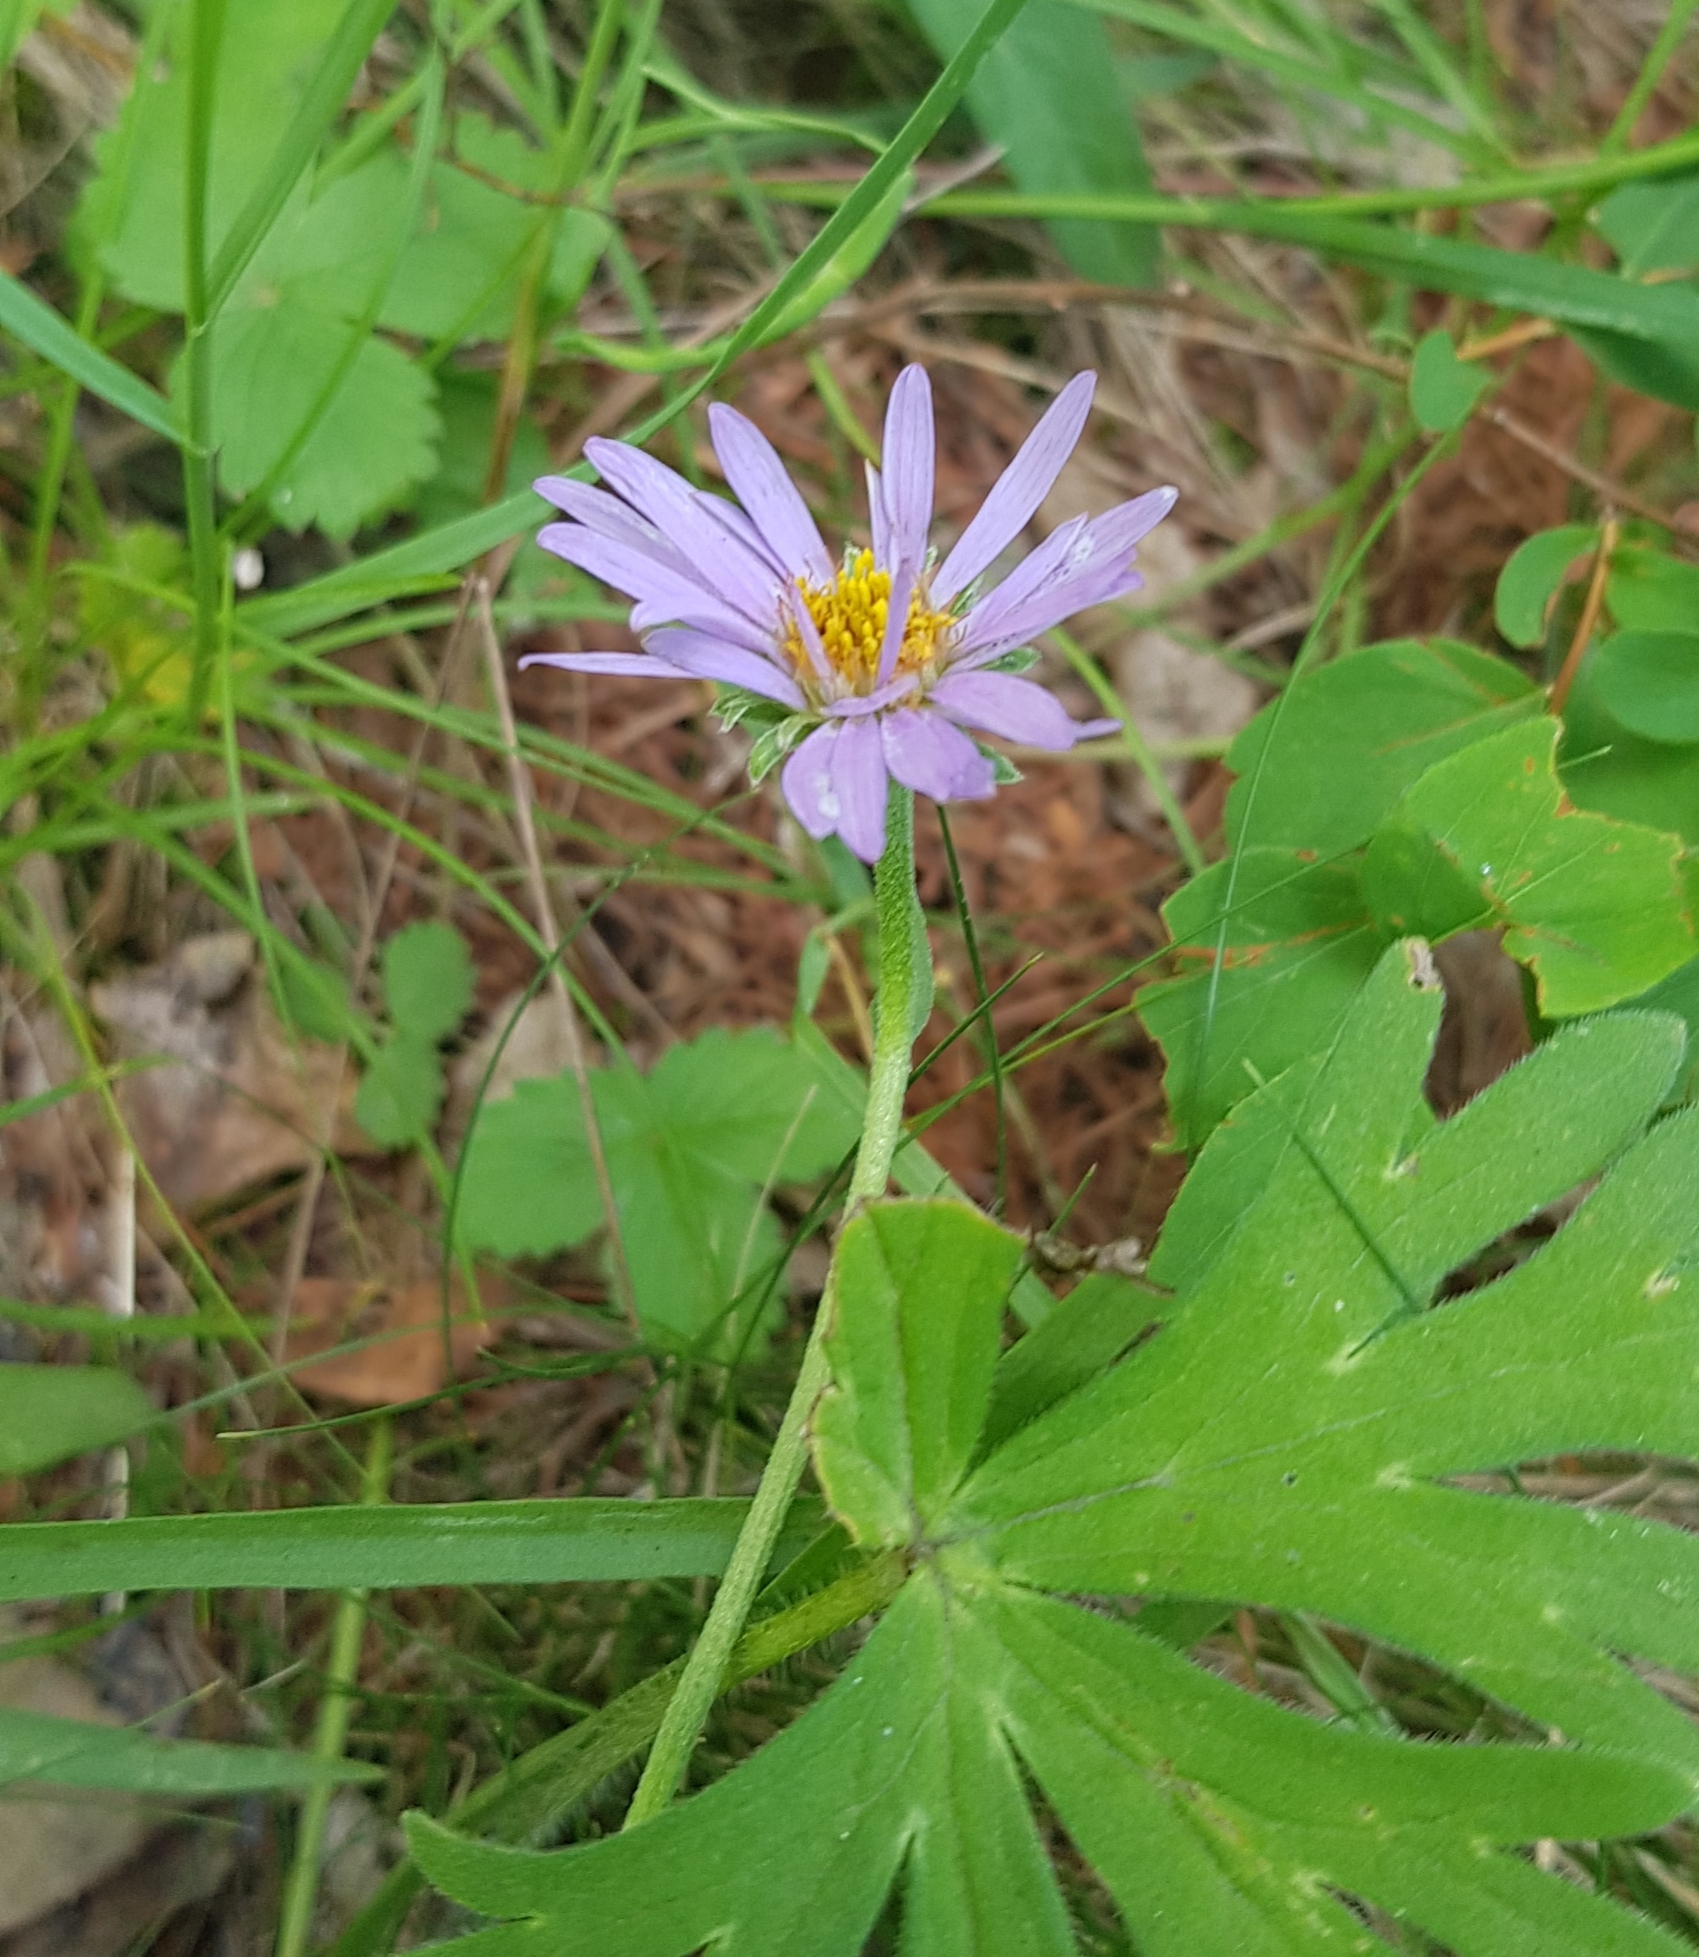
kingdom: Plantae
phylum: Tracheophyta
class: Magnoliopsida
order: Asterales
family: Asteraceae
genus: Aster
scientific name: Aster alpinus
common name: Alpine aster
